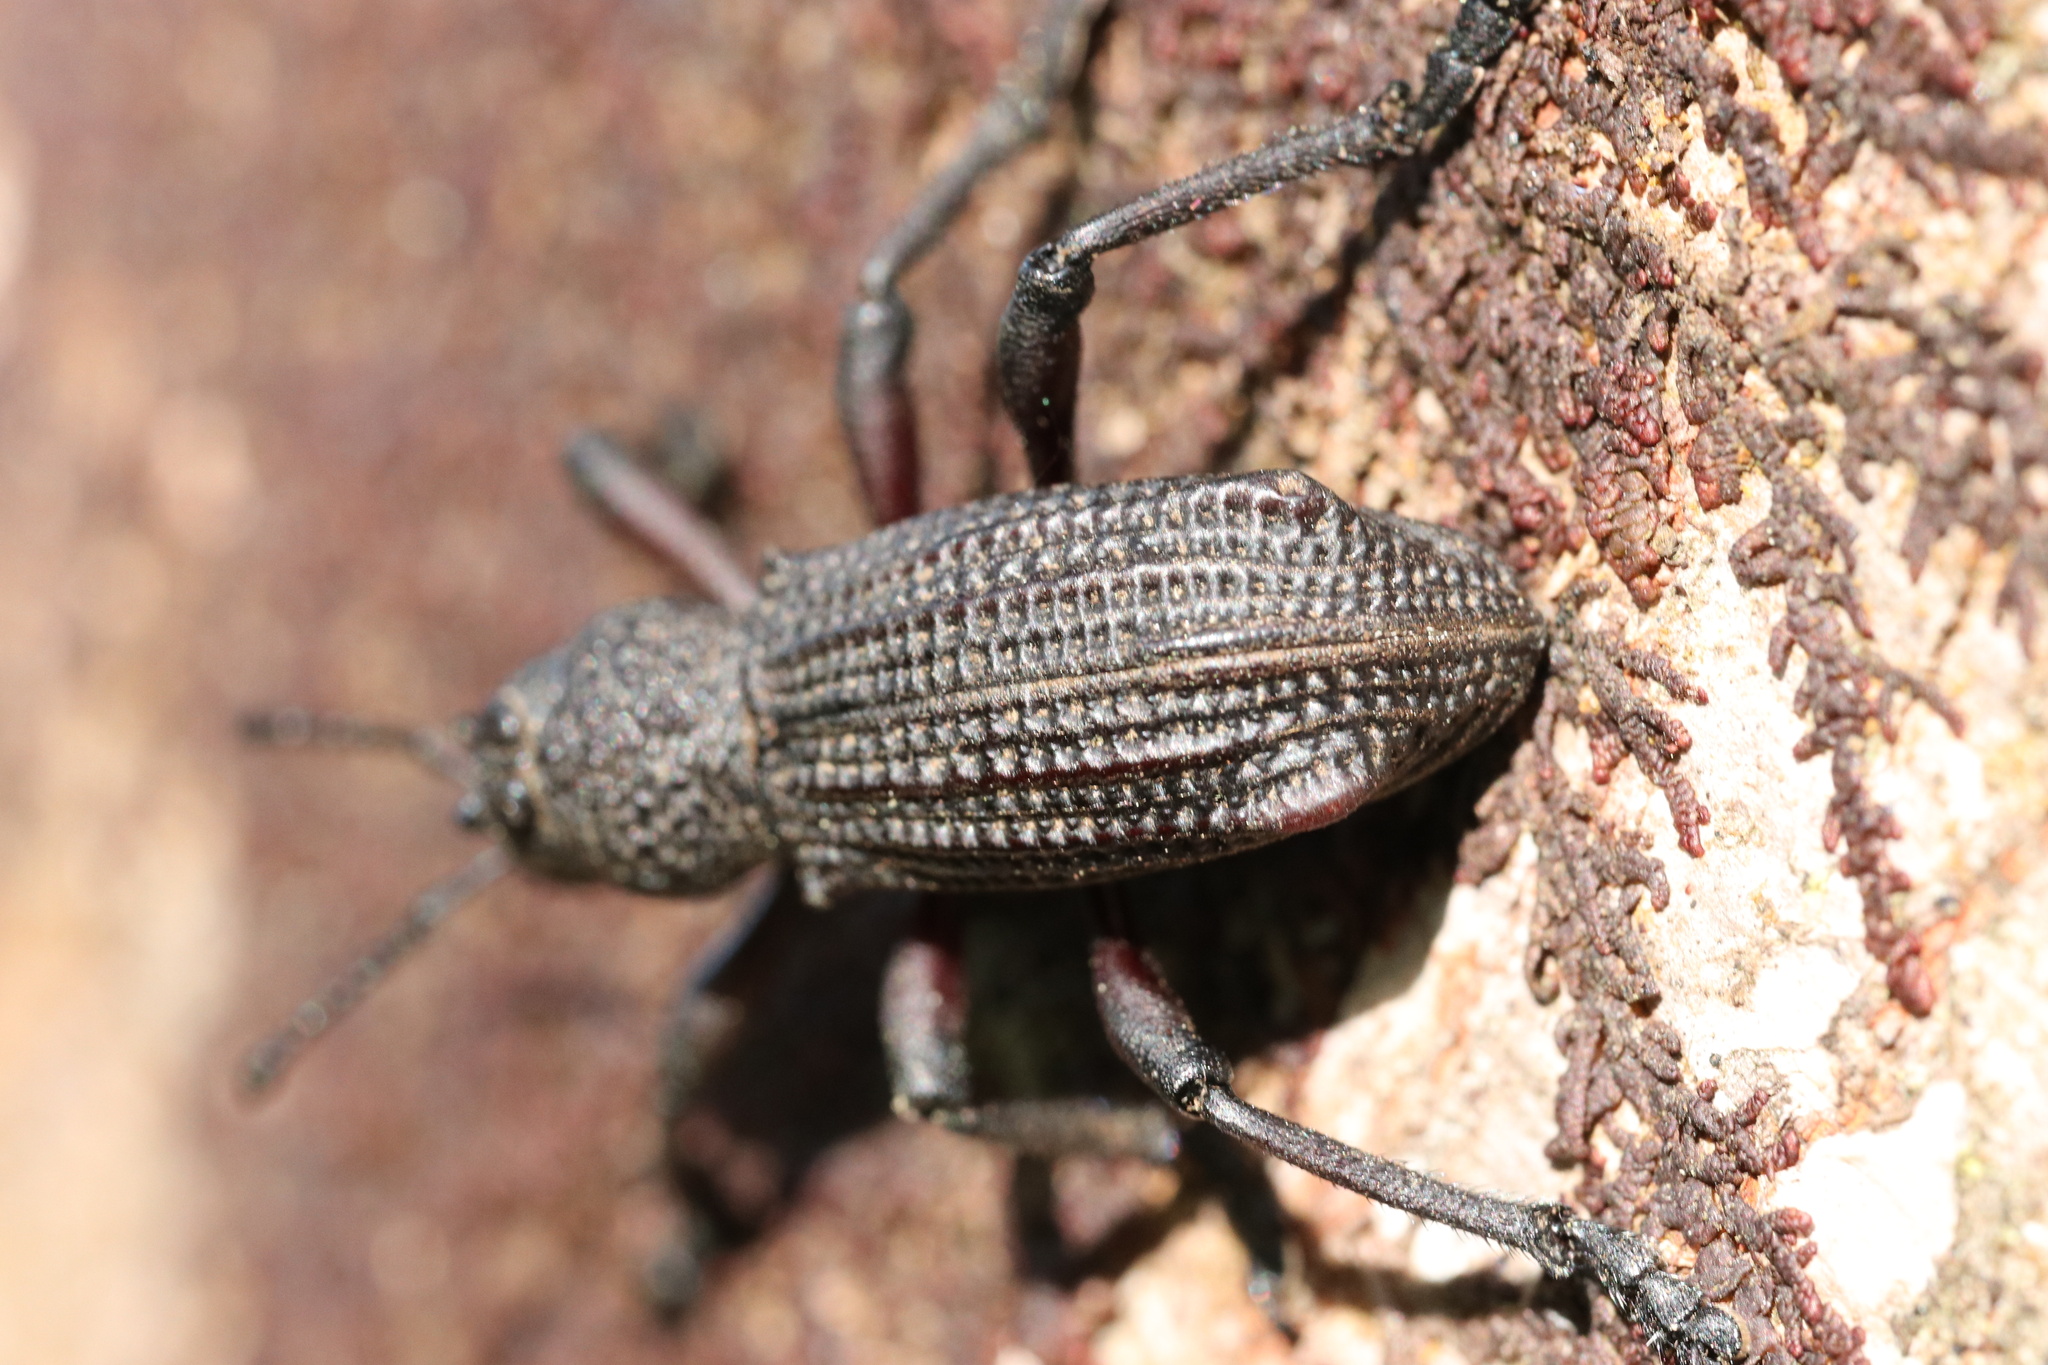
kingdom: Animalia
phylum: Arthropoda
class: Insecta
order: Coleoptera
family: Curculionidae
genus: Aegorhinus
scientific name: Aegorhinus
